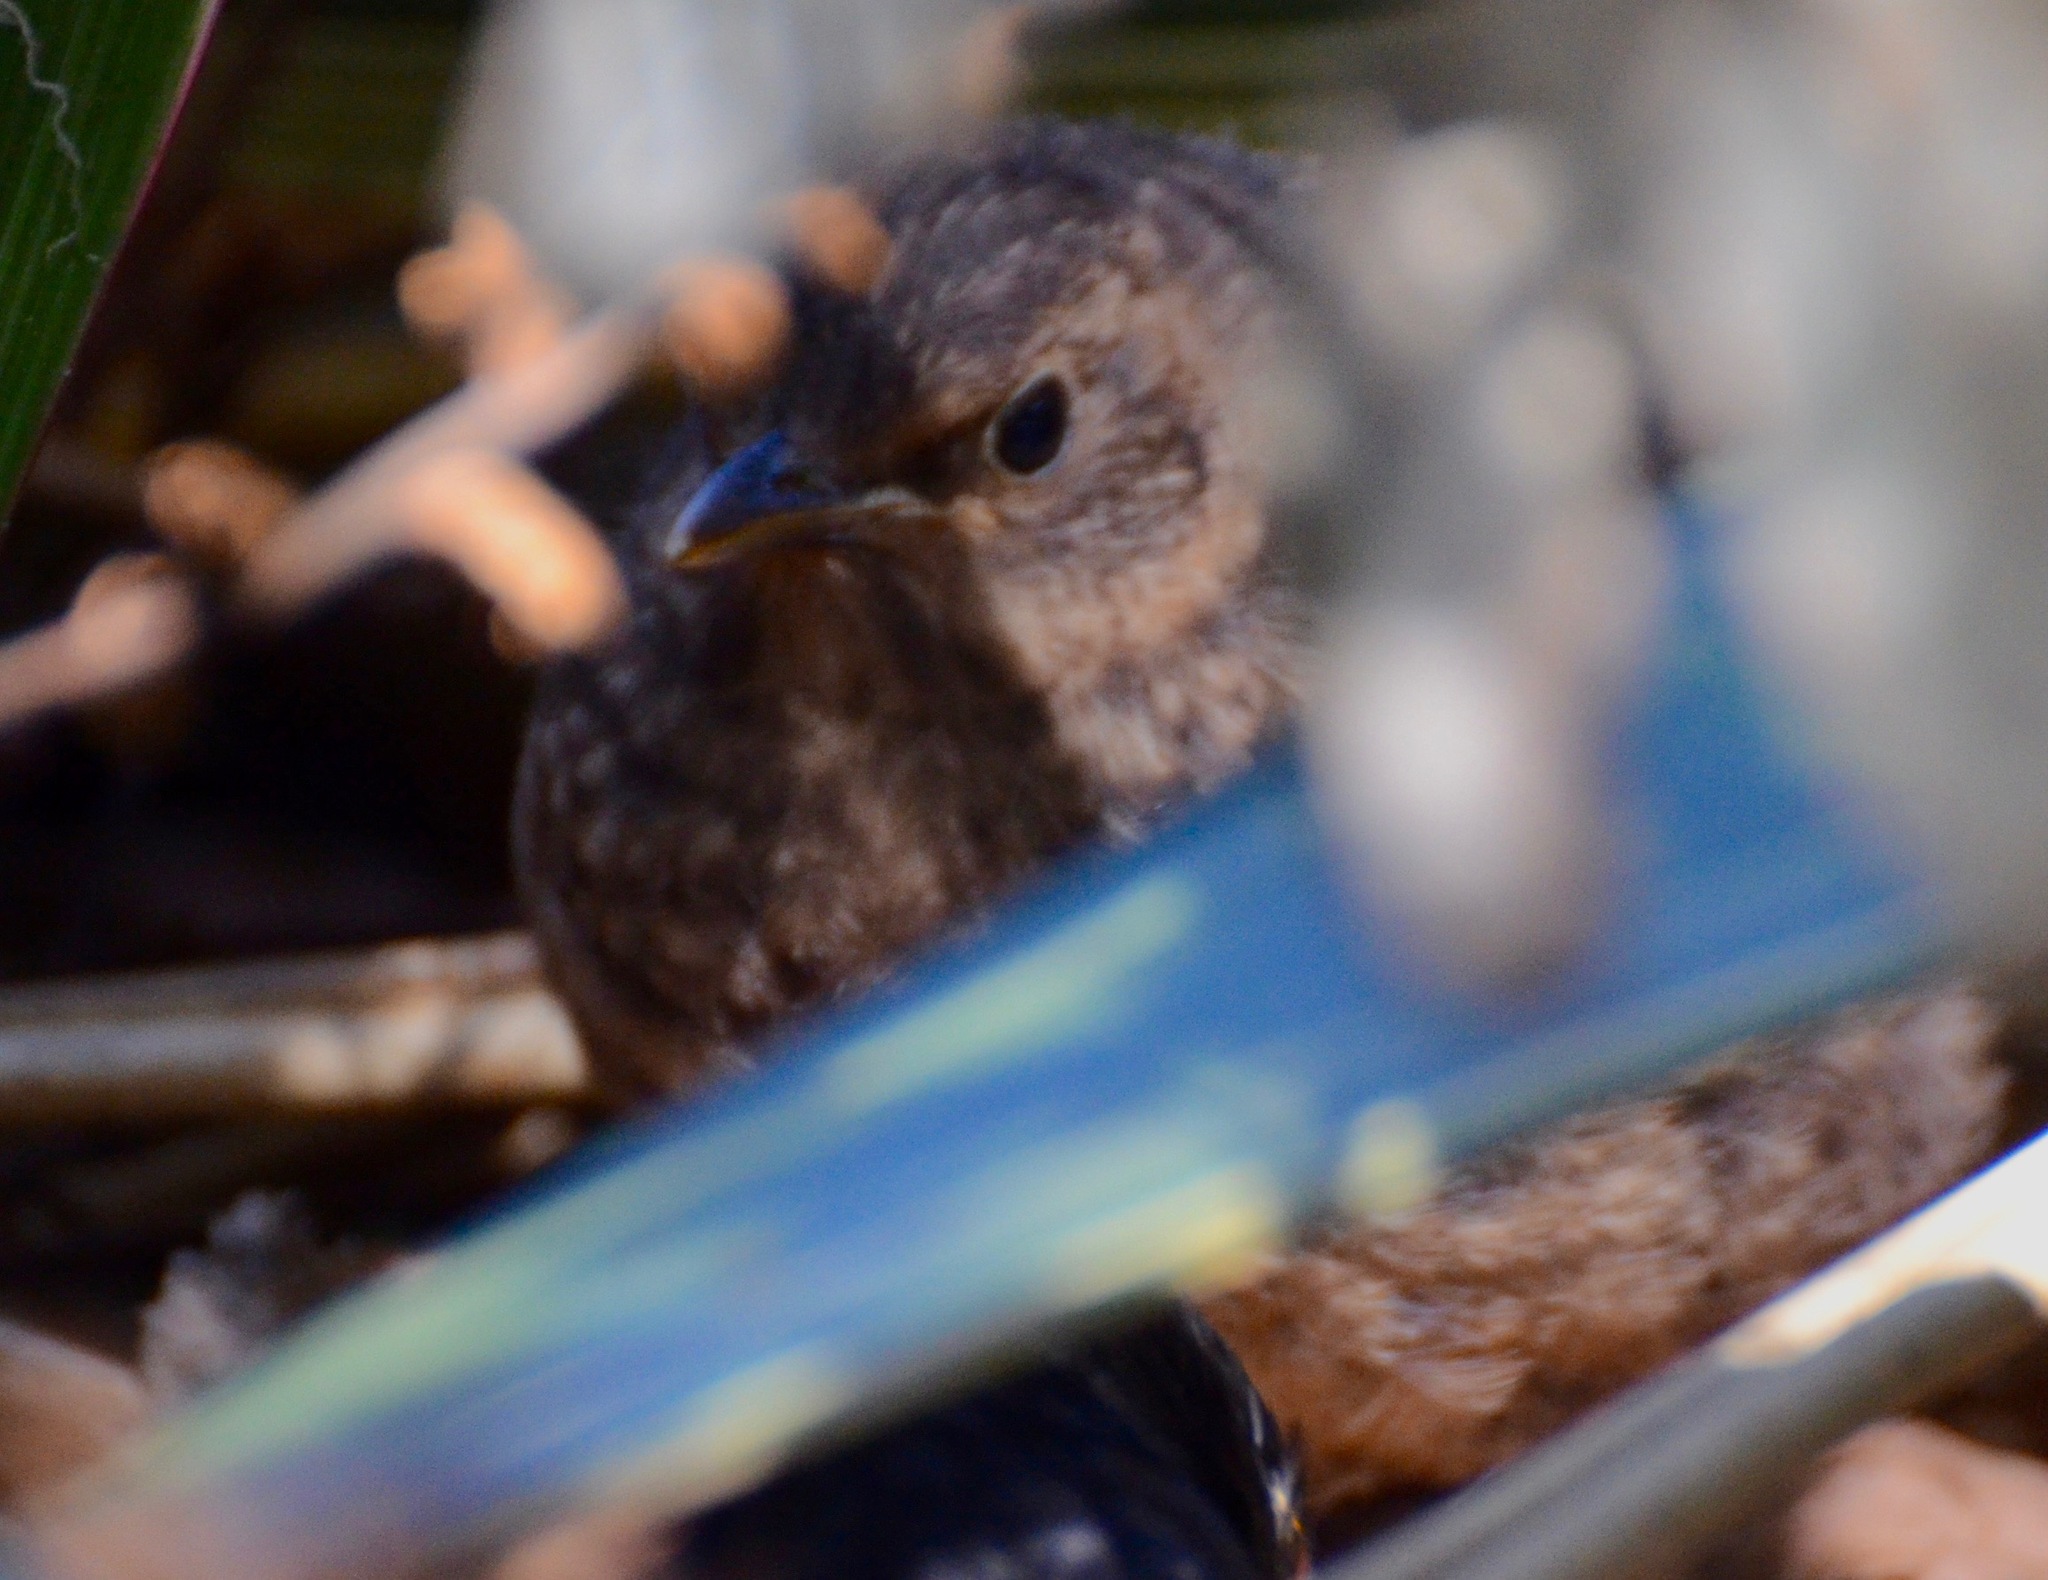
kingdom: Animalia
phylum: Chordata
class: Aves
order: Passeriformes
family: Turdidae
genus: Turdus
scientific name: Turdus merula
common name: Common blackbird
